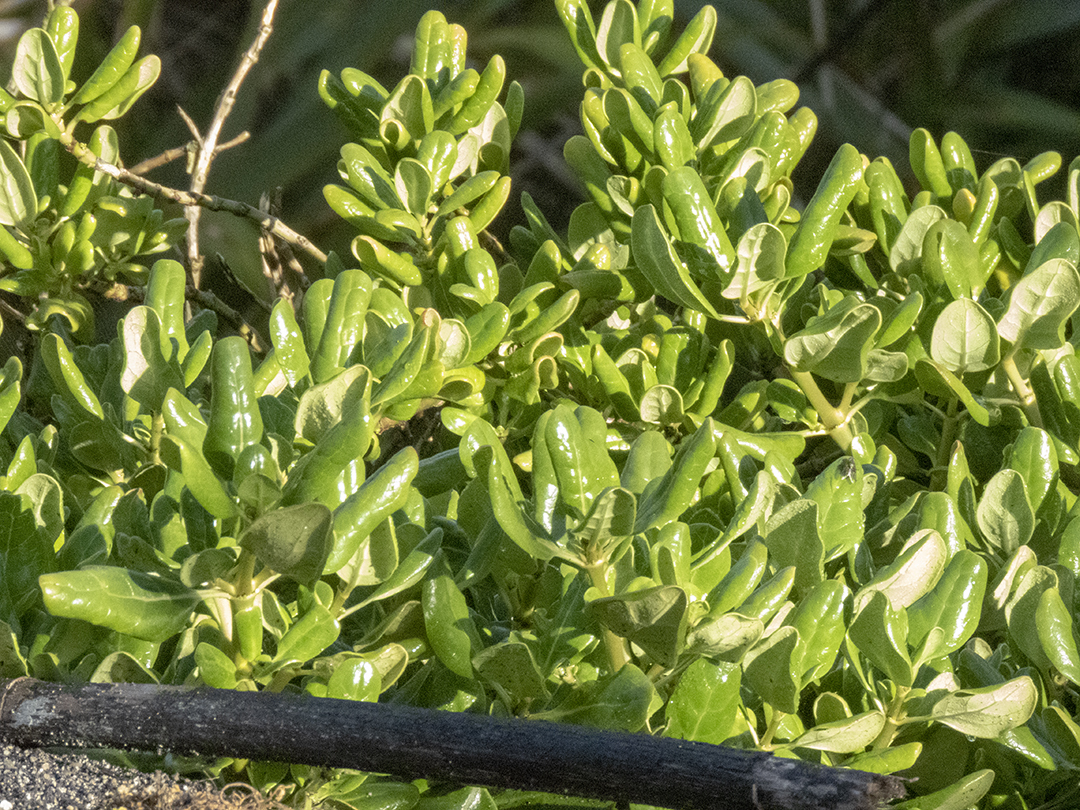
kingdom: Plantae
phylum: Tracheophyta
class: Magnoliopsida
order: Gentianales
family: Rubiaceae
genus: Coprosma
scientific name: Coprosma repens
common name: Tree bedstraw
